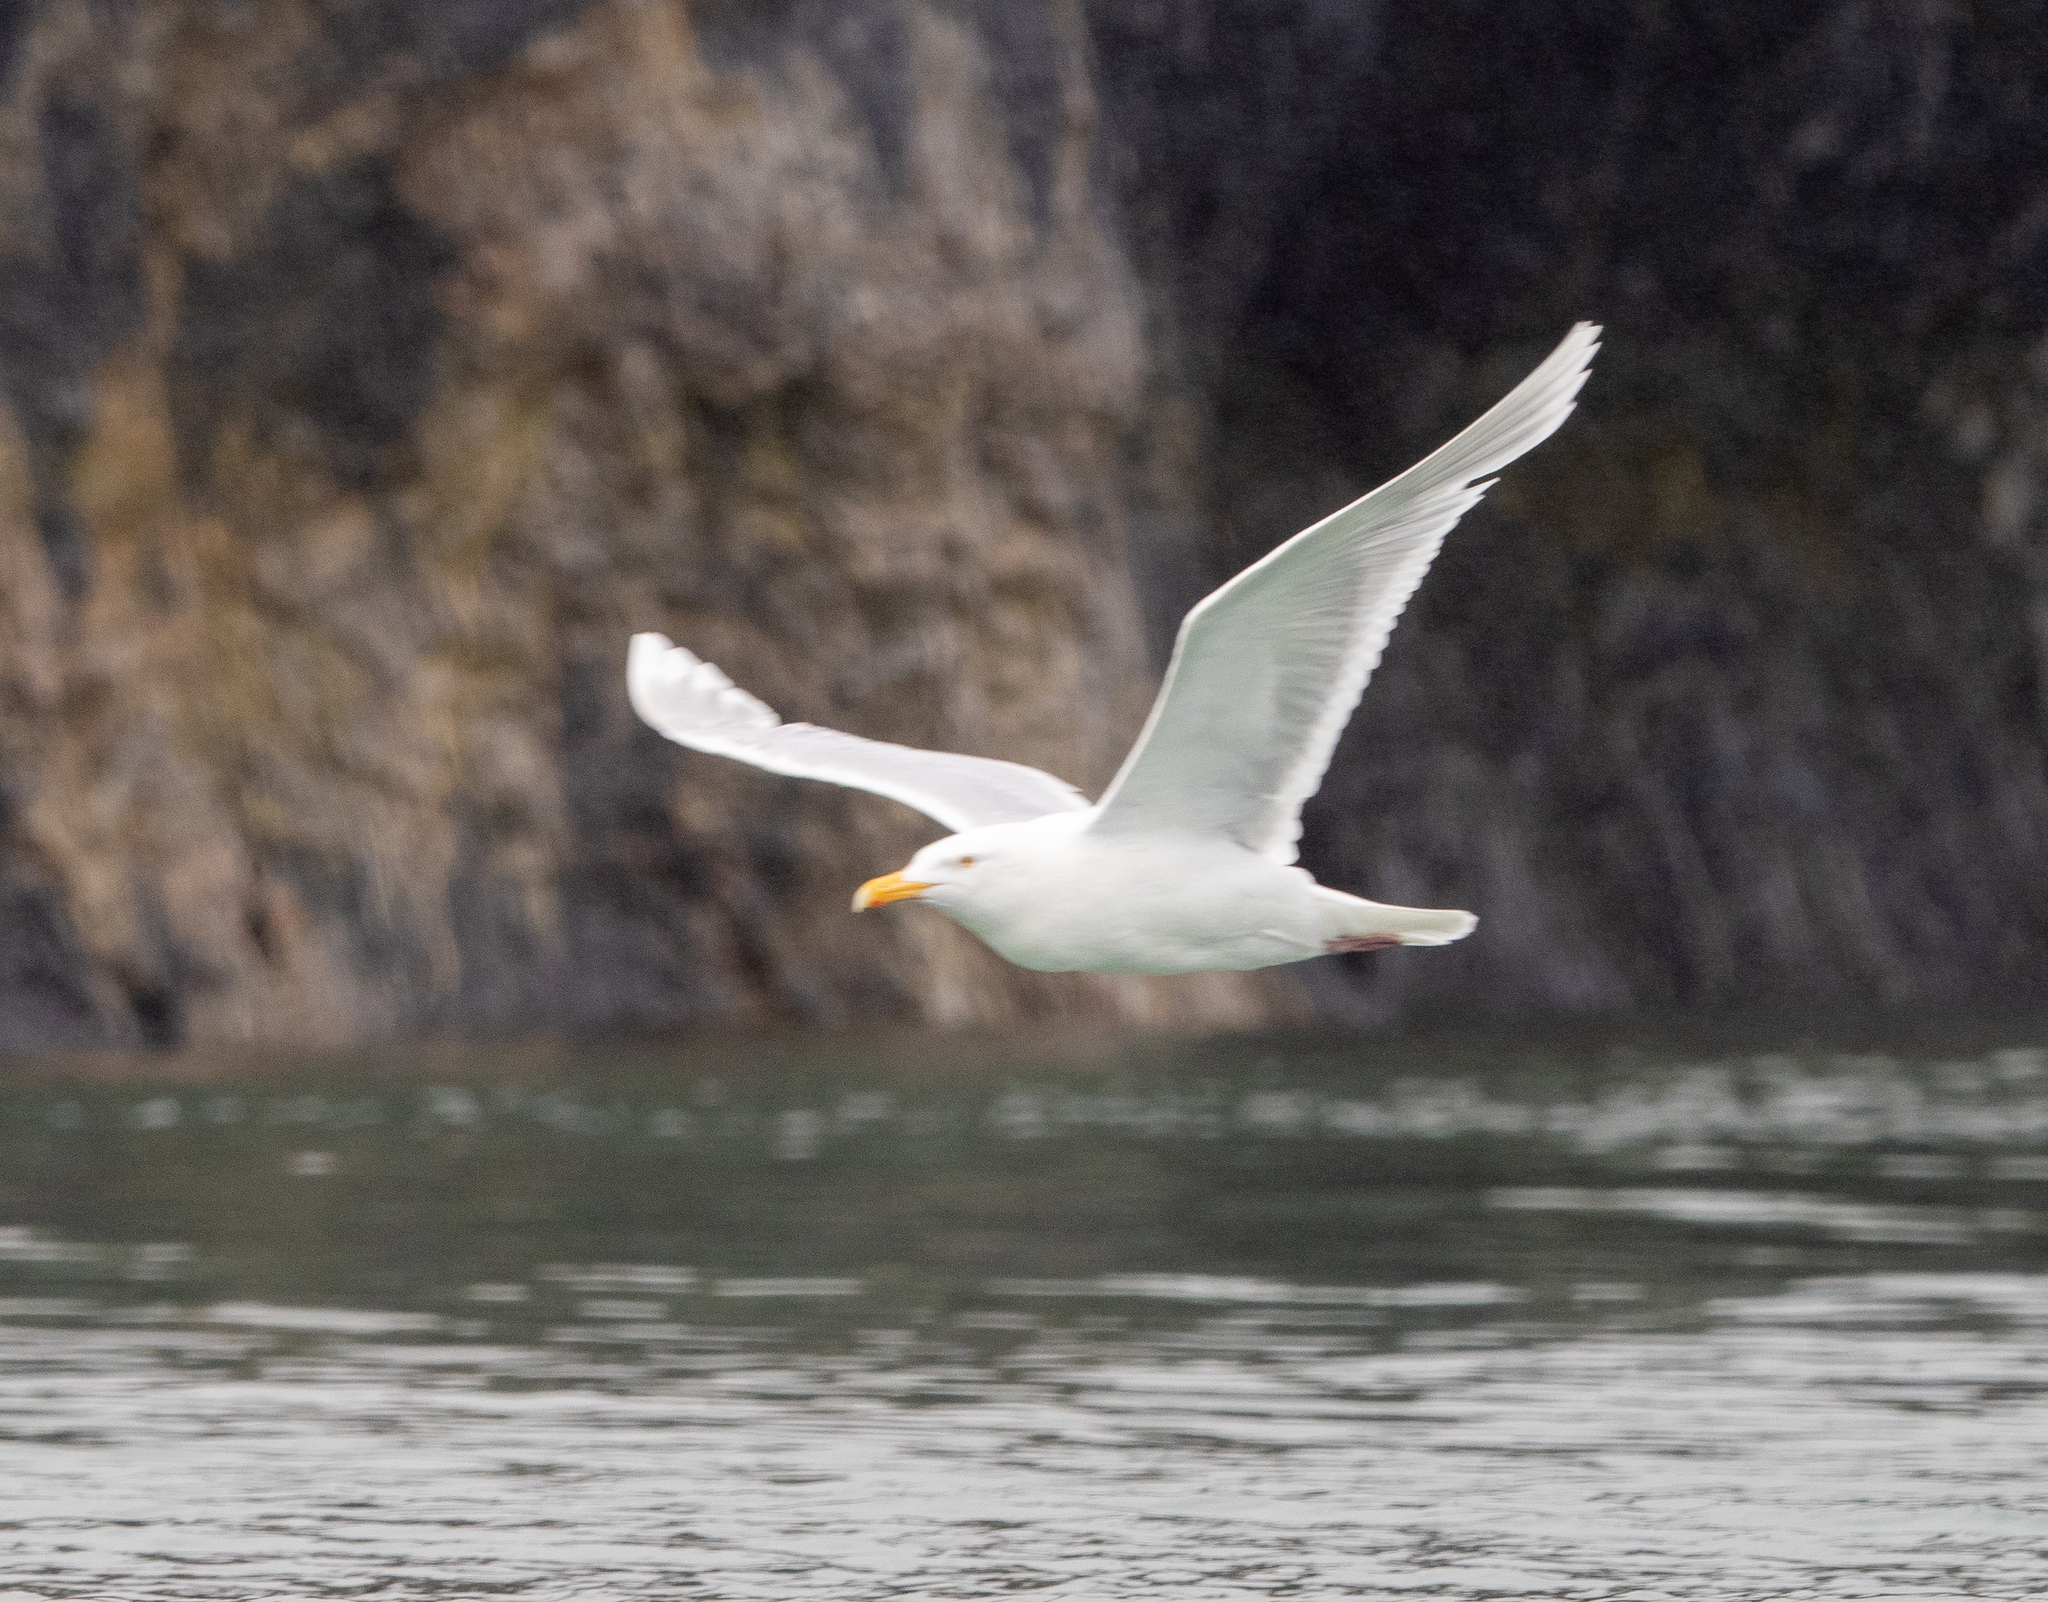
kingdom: Animalia
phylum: Chordata
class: Aves
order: Charadriiformes
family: Laridae
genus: Larus
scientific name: Larus hyperboreus
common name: Glaucous gull
